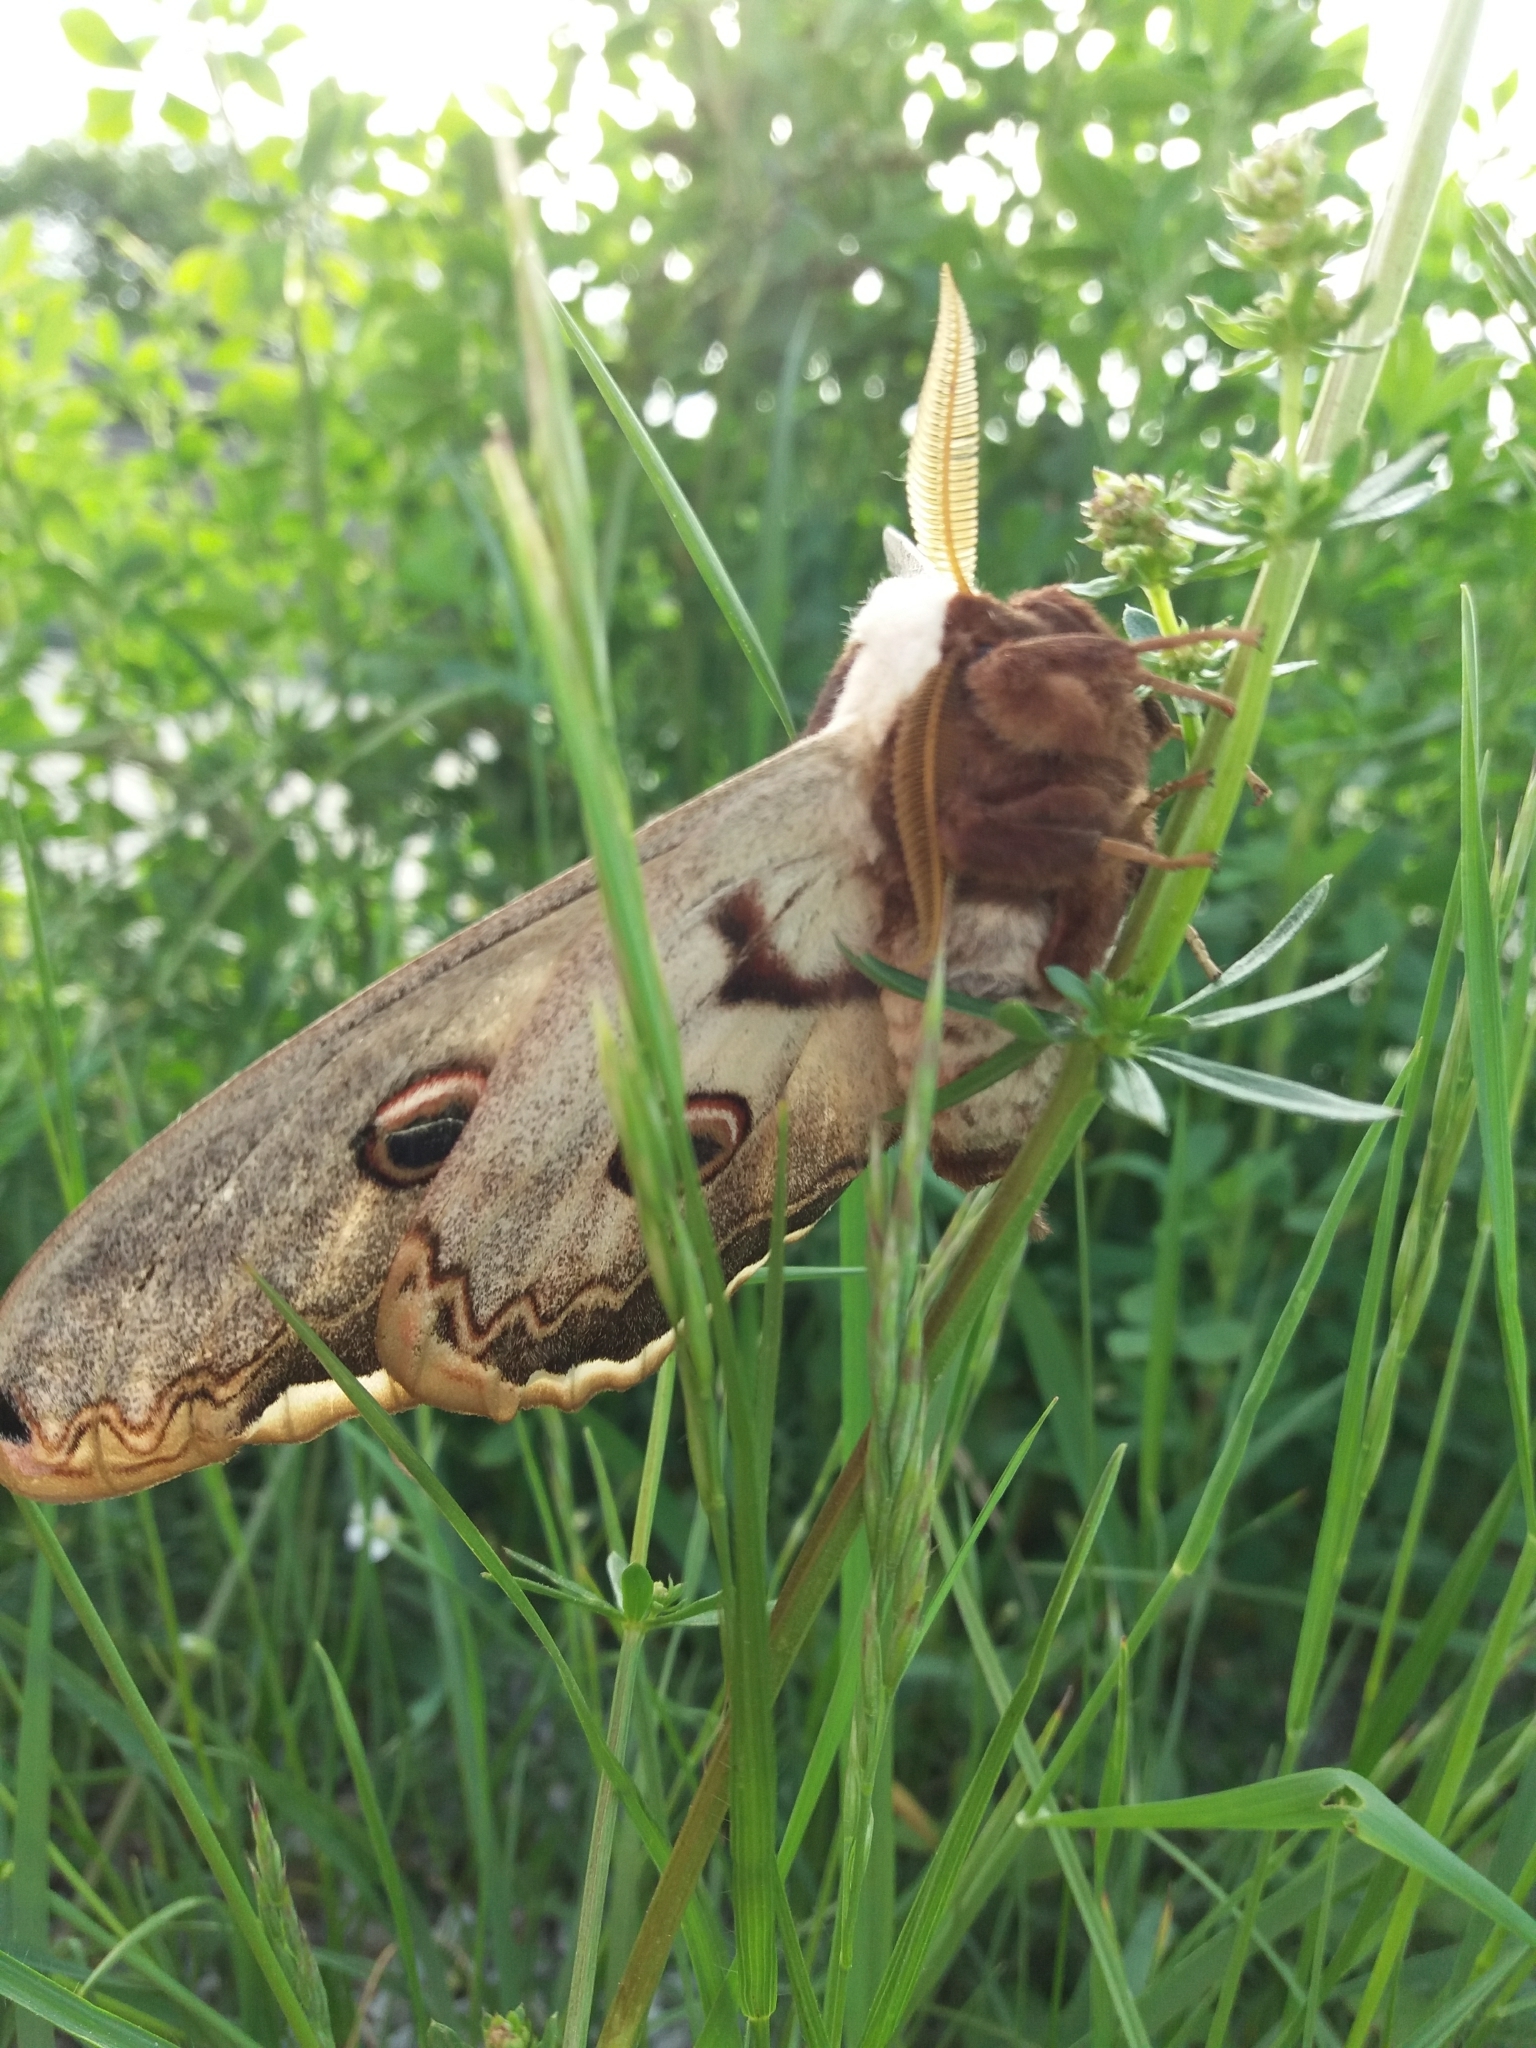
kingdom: Animalia
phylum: Arthropoda
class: Insecta
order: Lepidoptera
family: Saturniidae
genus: Saturnia
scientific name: Saturnia pyri
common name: Great peacock moth
